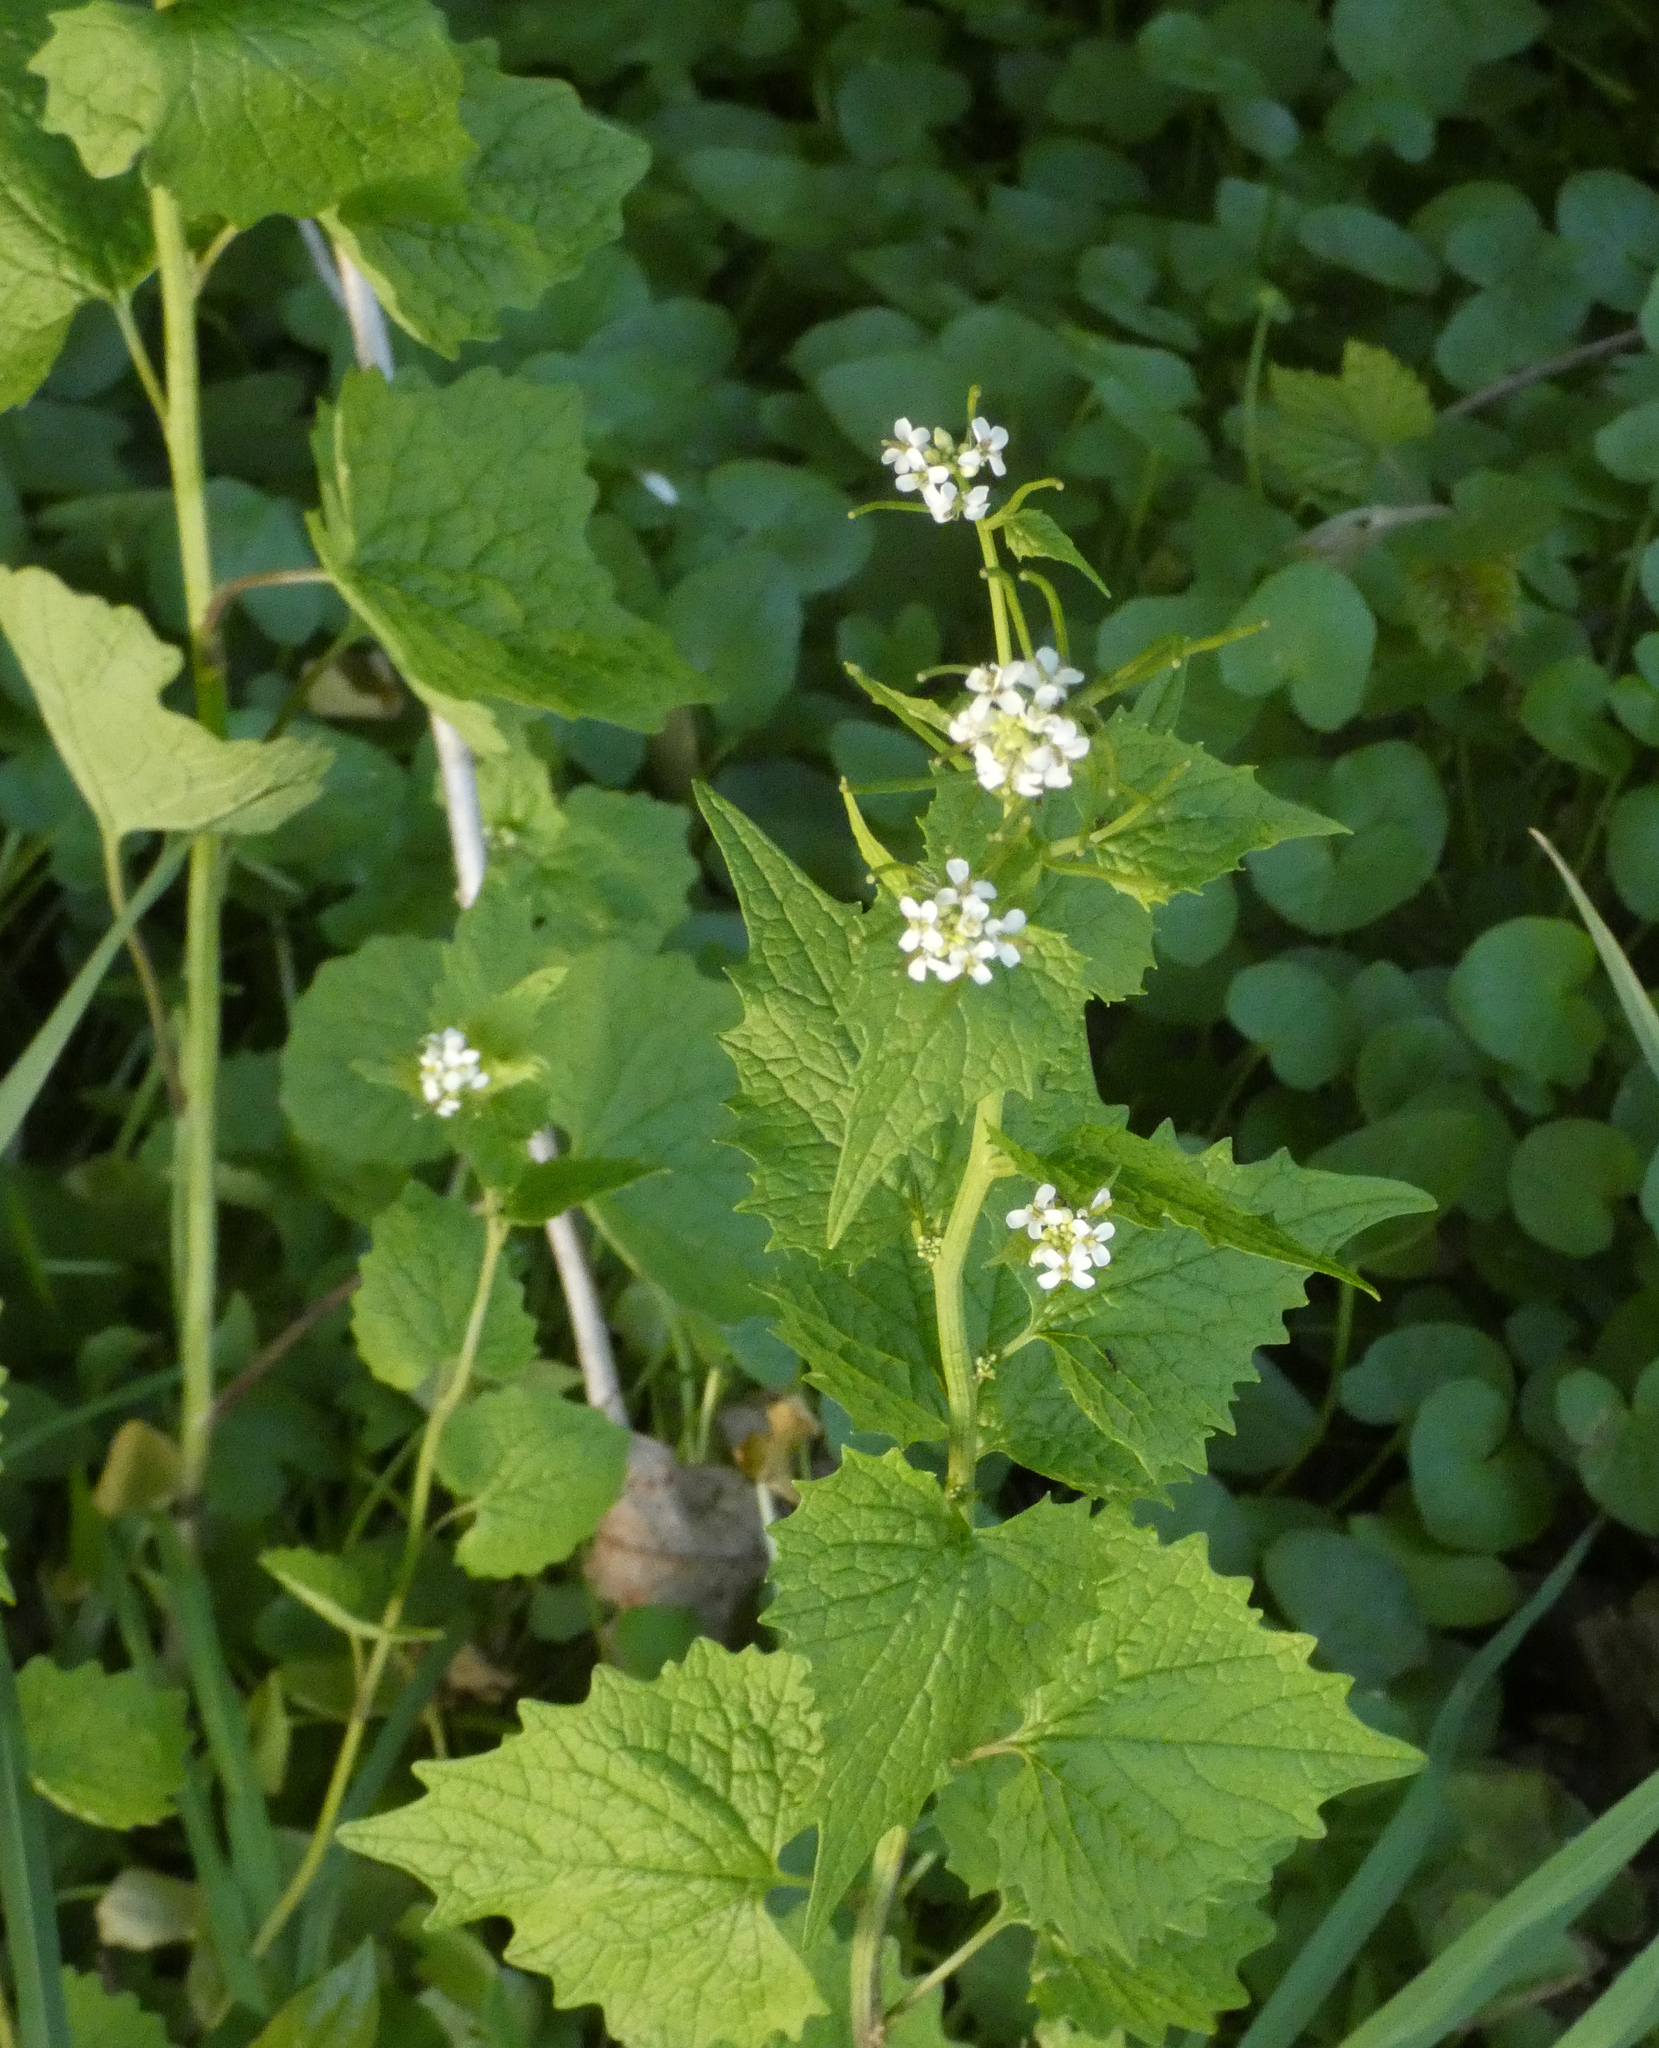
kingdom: Plantae
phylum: Tracheophyta
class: Magnoliopsida
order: Brassicales
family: Brassicaceae
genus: Alliaria
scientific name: Alliaria petiolata
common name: Garlic mustard
